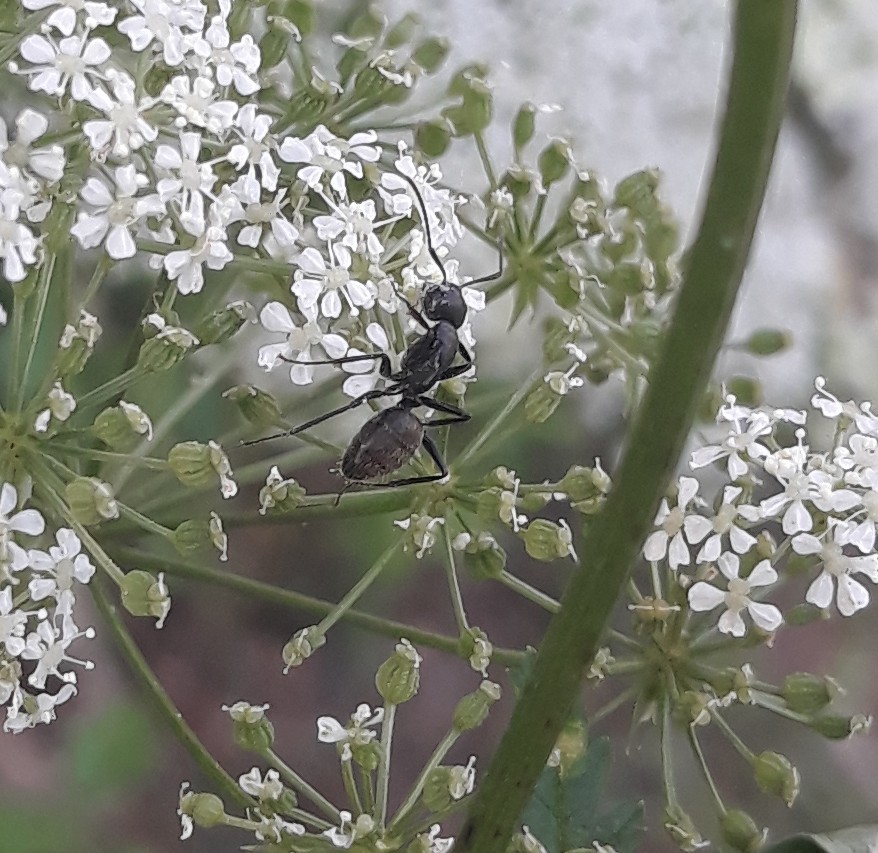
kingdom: Animalia
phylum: Arthropoda
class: Insecta
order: Hymenoptera
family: Formicidae
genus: Camponotus
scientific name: Camponotus pennsylvanicus
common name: Black carpenter ant
